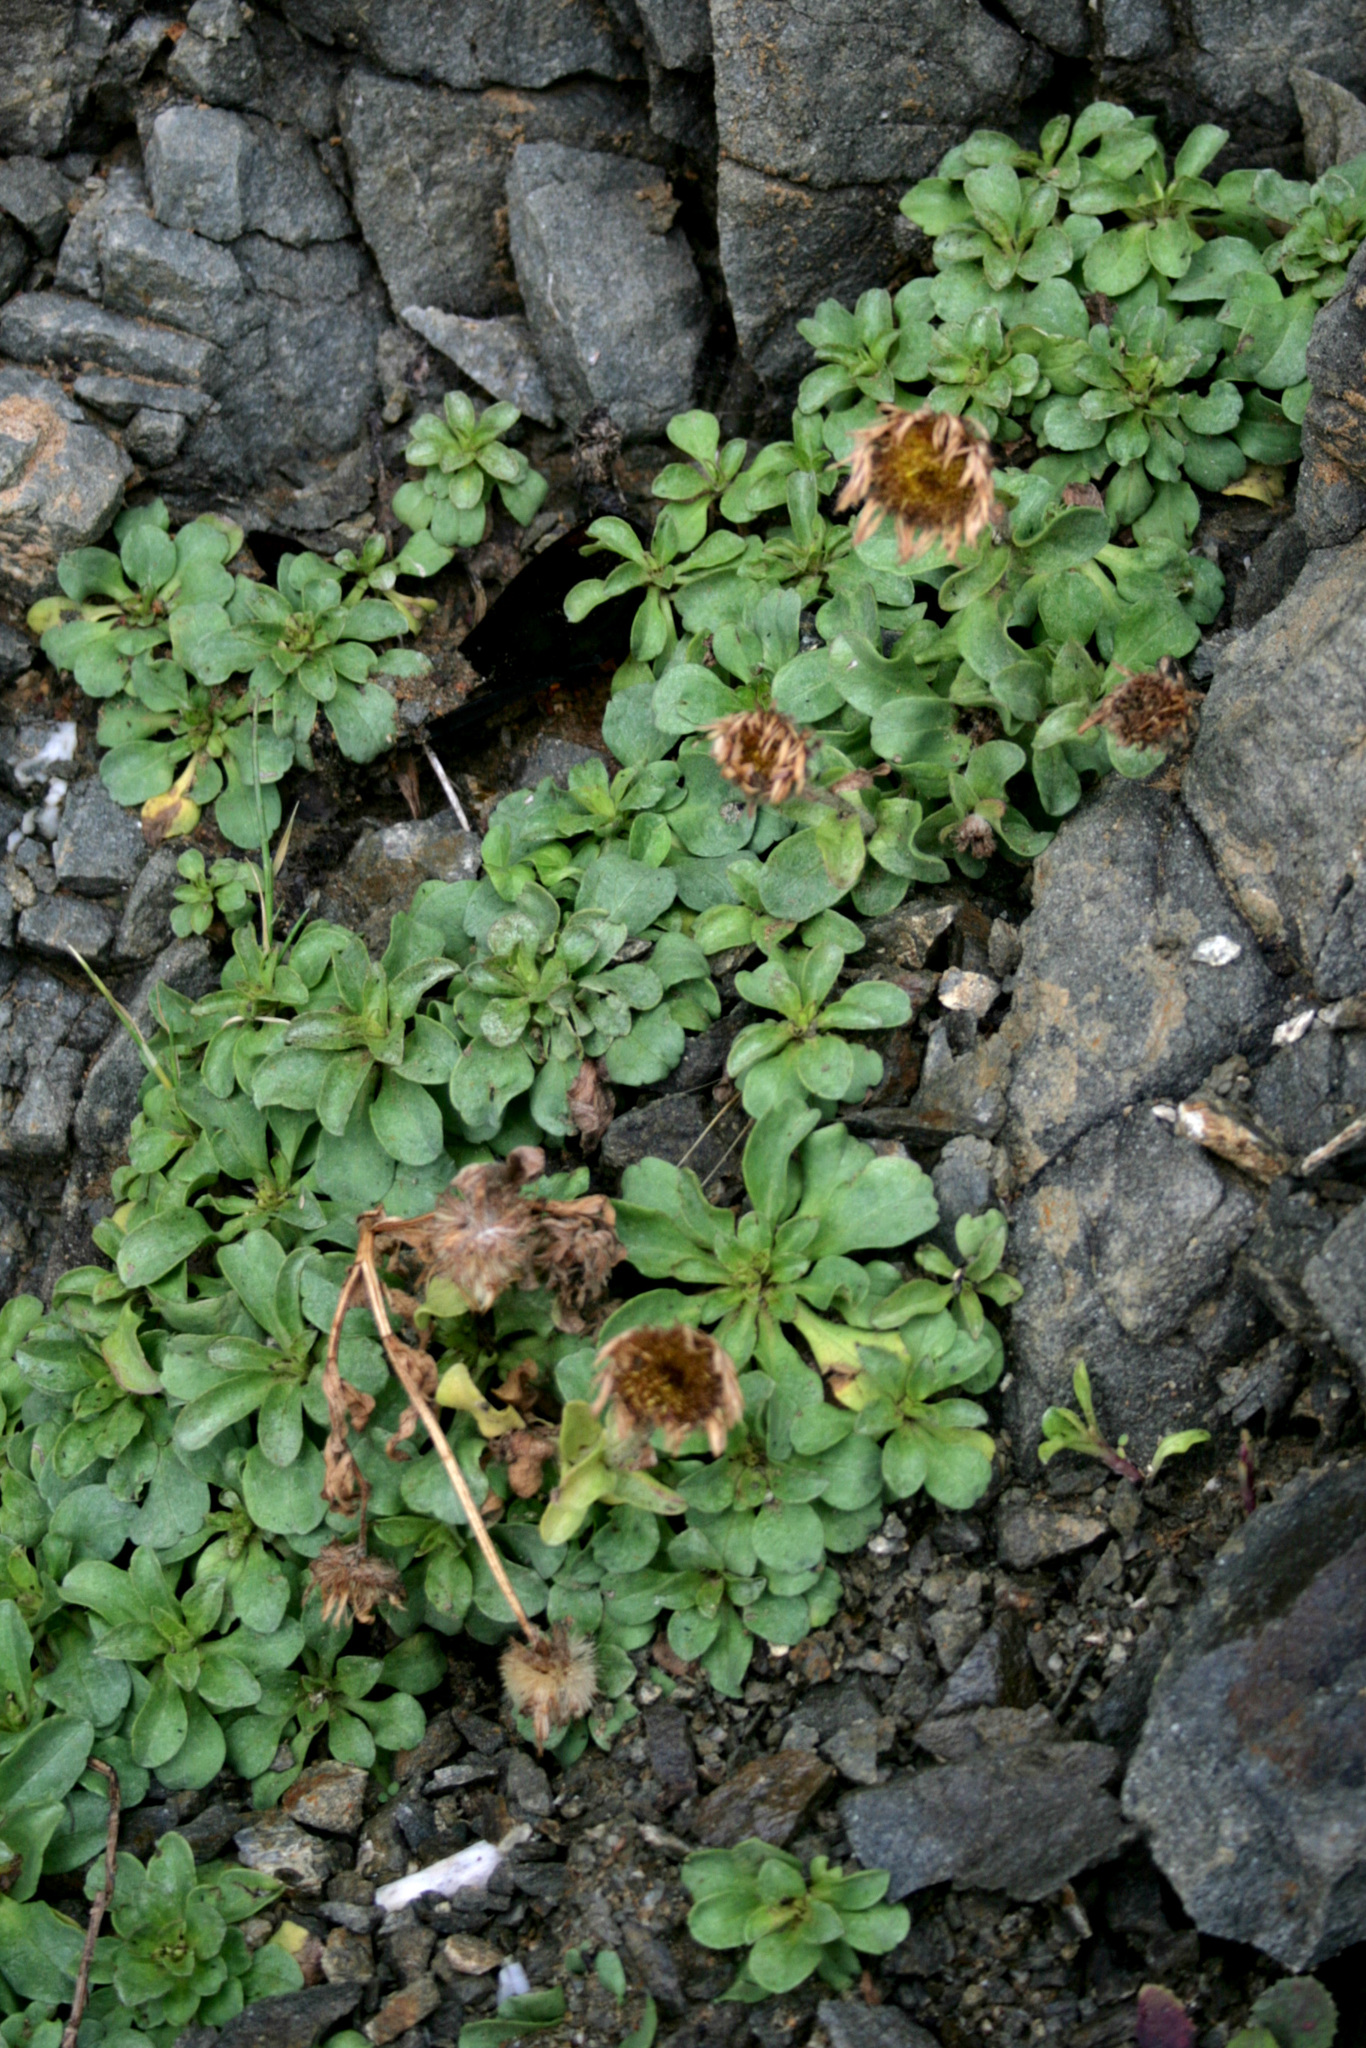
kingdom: Plantae
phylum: Tracheophyta
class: Magnoliopsida
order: Asterales
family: Asteraceae
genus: Erigeron
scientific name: Erigeron glaucus
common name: Seaside daisy
